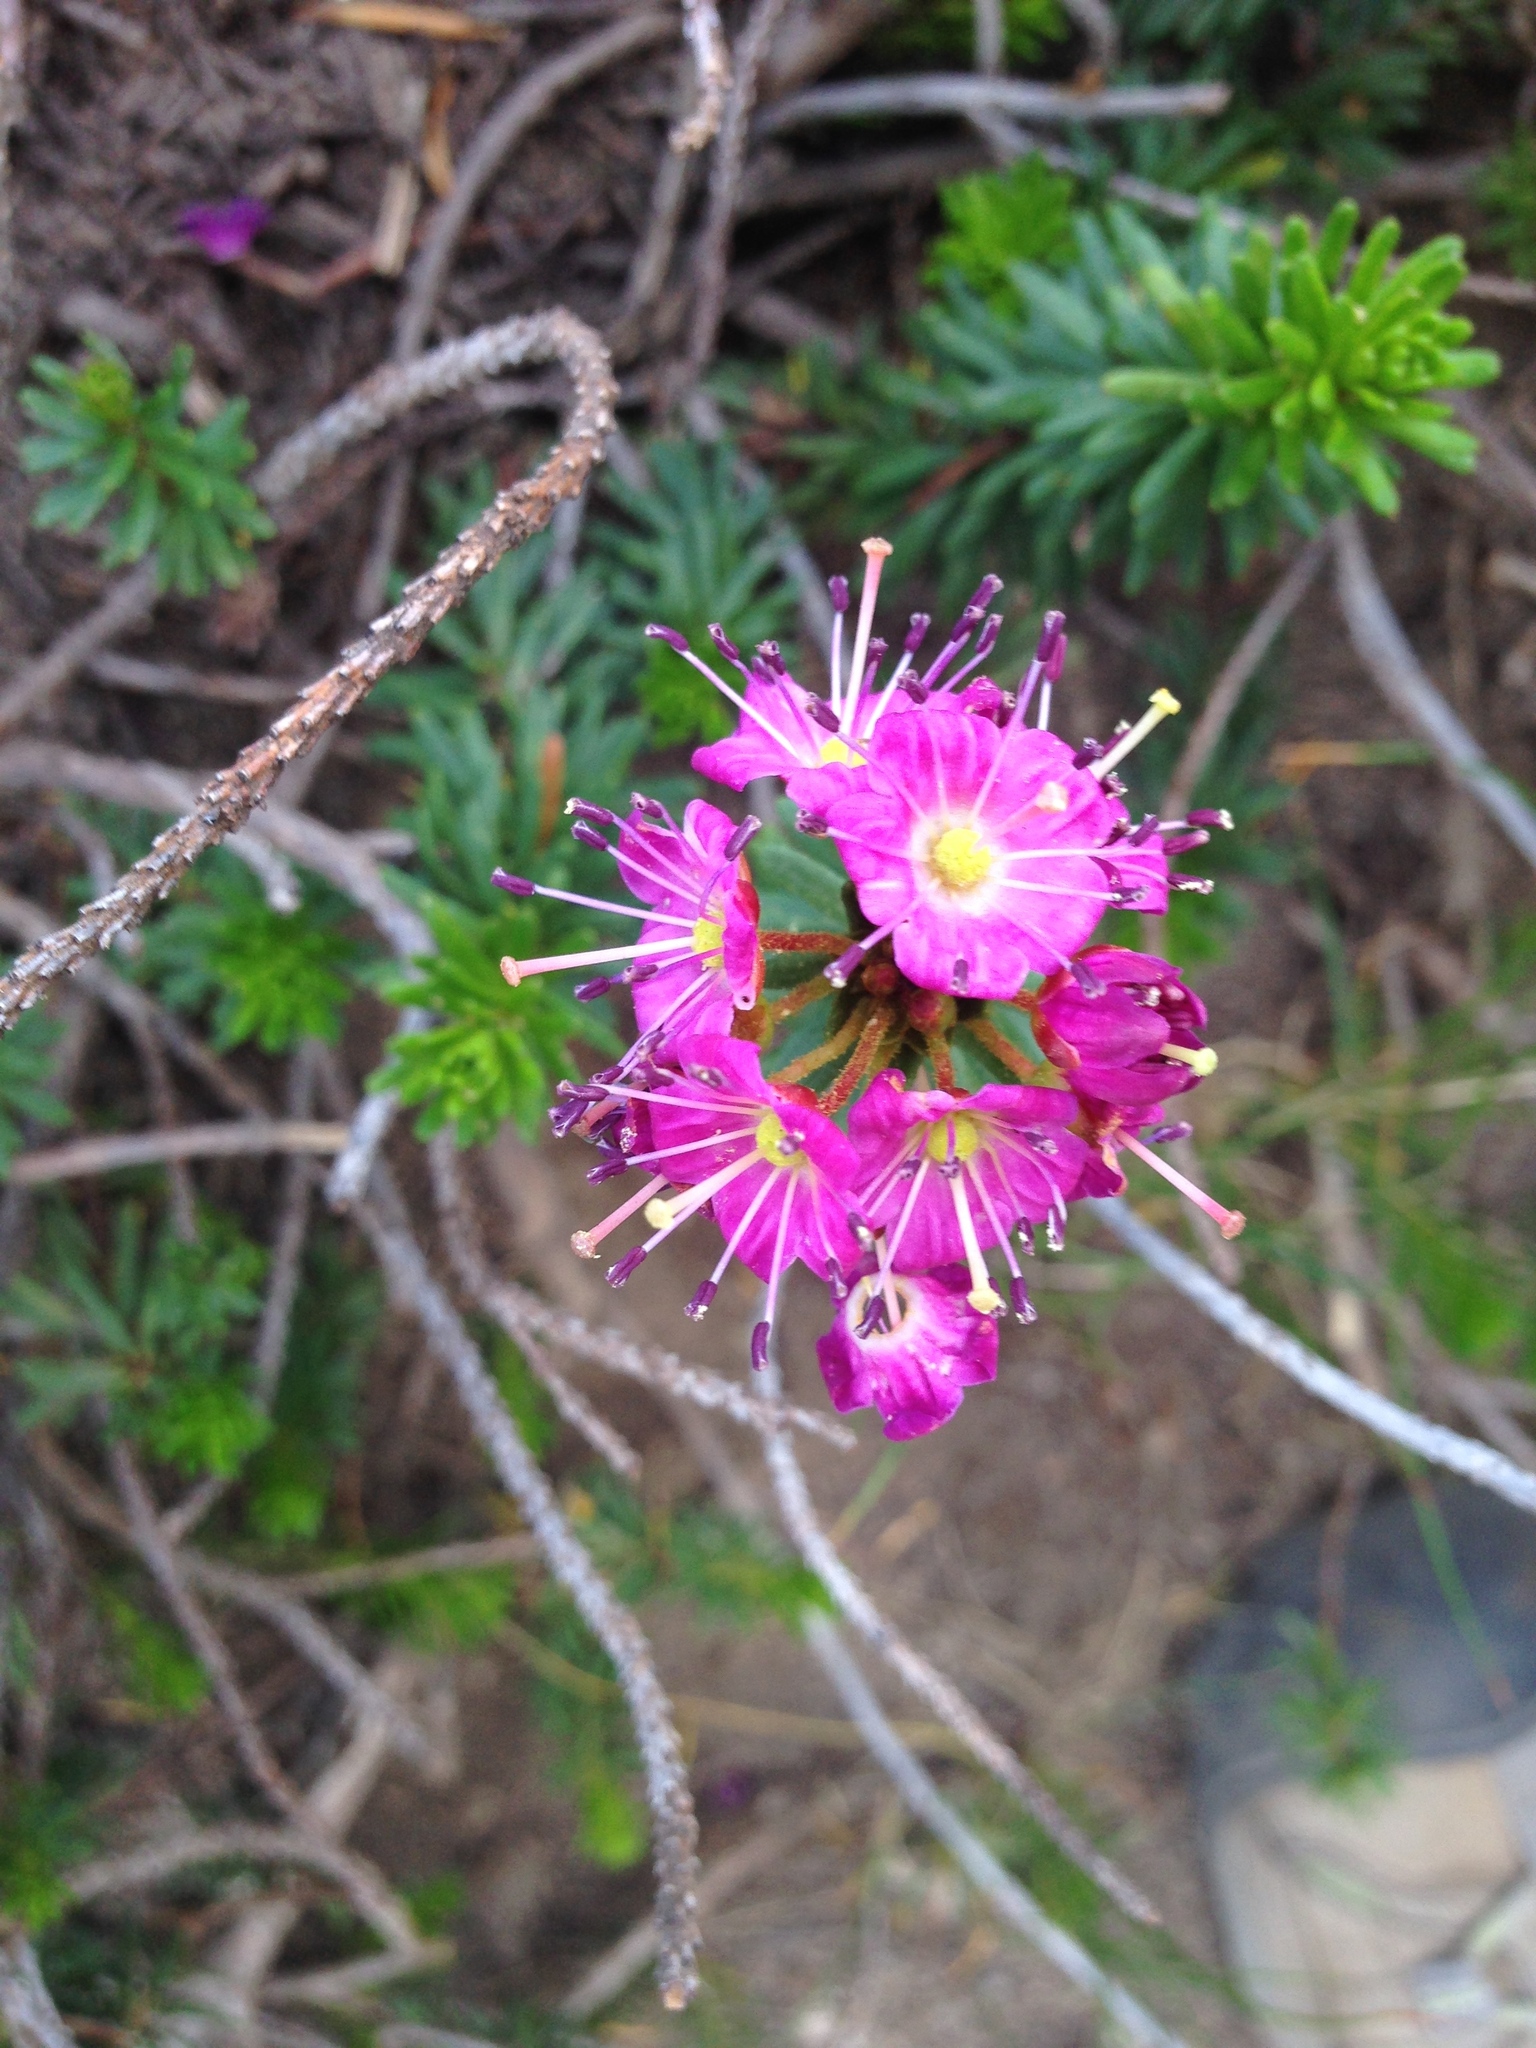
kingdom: Plantae
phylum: Tracheophyta
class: Magnoliopsida
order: Ericales
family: Ericaceae
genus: Phyllodoce
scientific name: Phyllodoce breweri
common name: Brewer's mountain-heather
